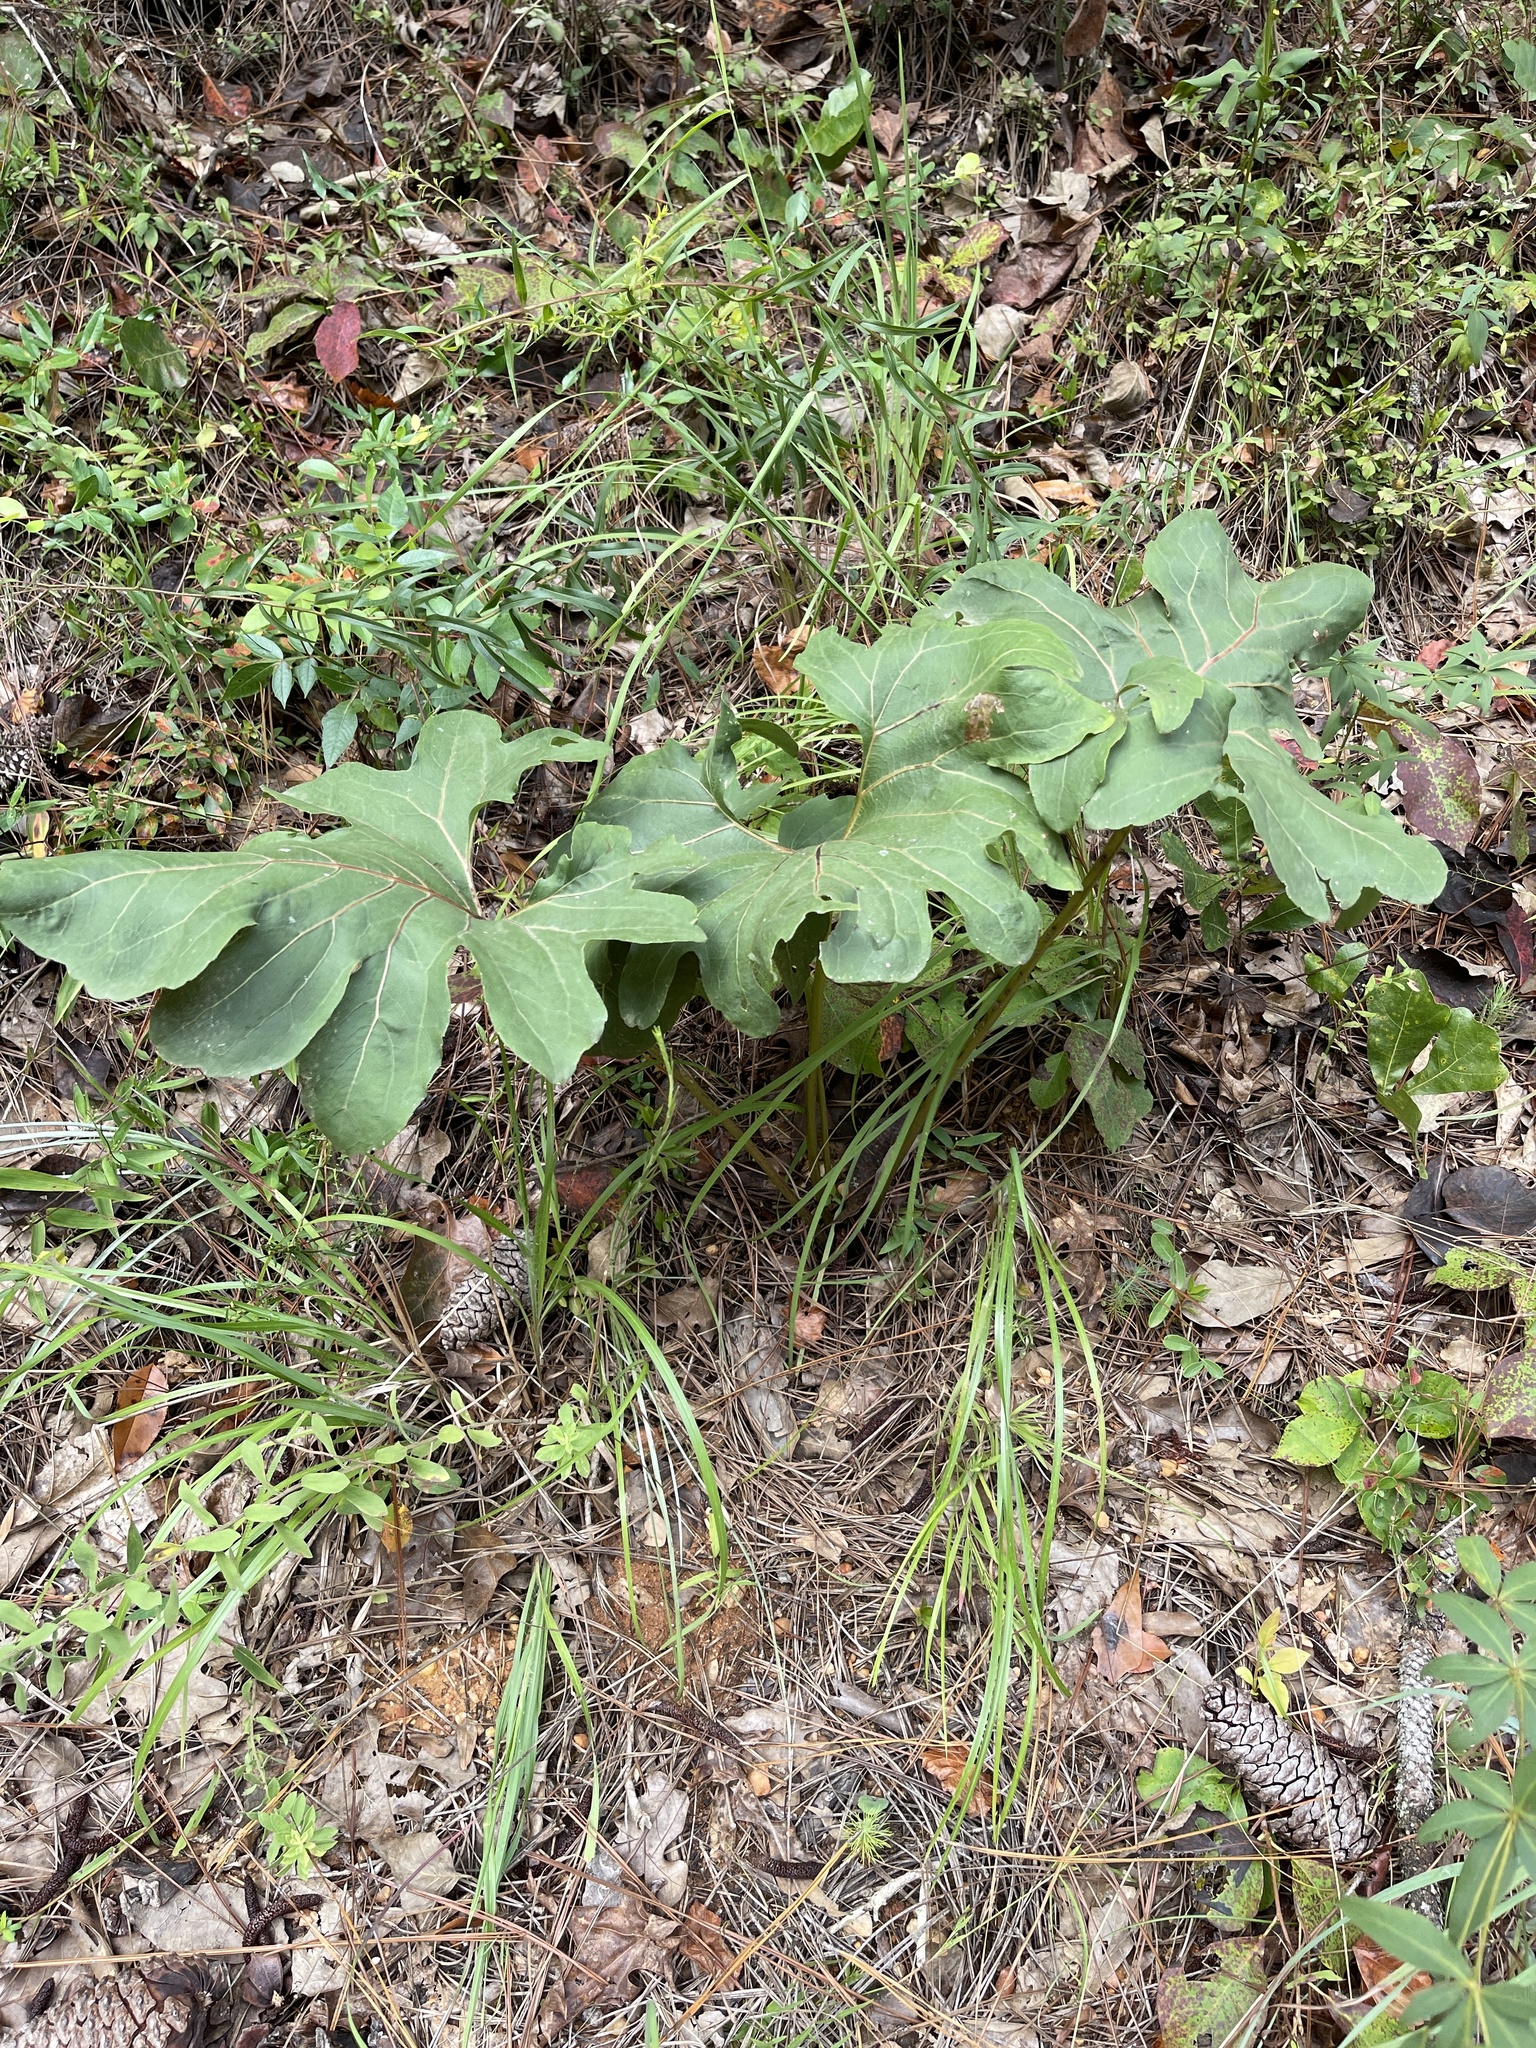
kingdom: Plantae
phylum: Tracheophyta
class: Magnoliopsida
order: Asterales
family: Asteraceae
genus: Silphium
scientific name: Silphium compositum
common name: Lesser basal-leaf rosinweed
